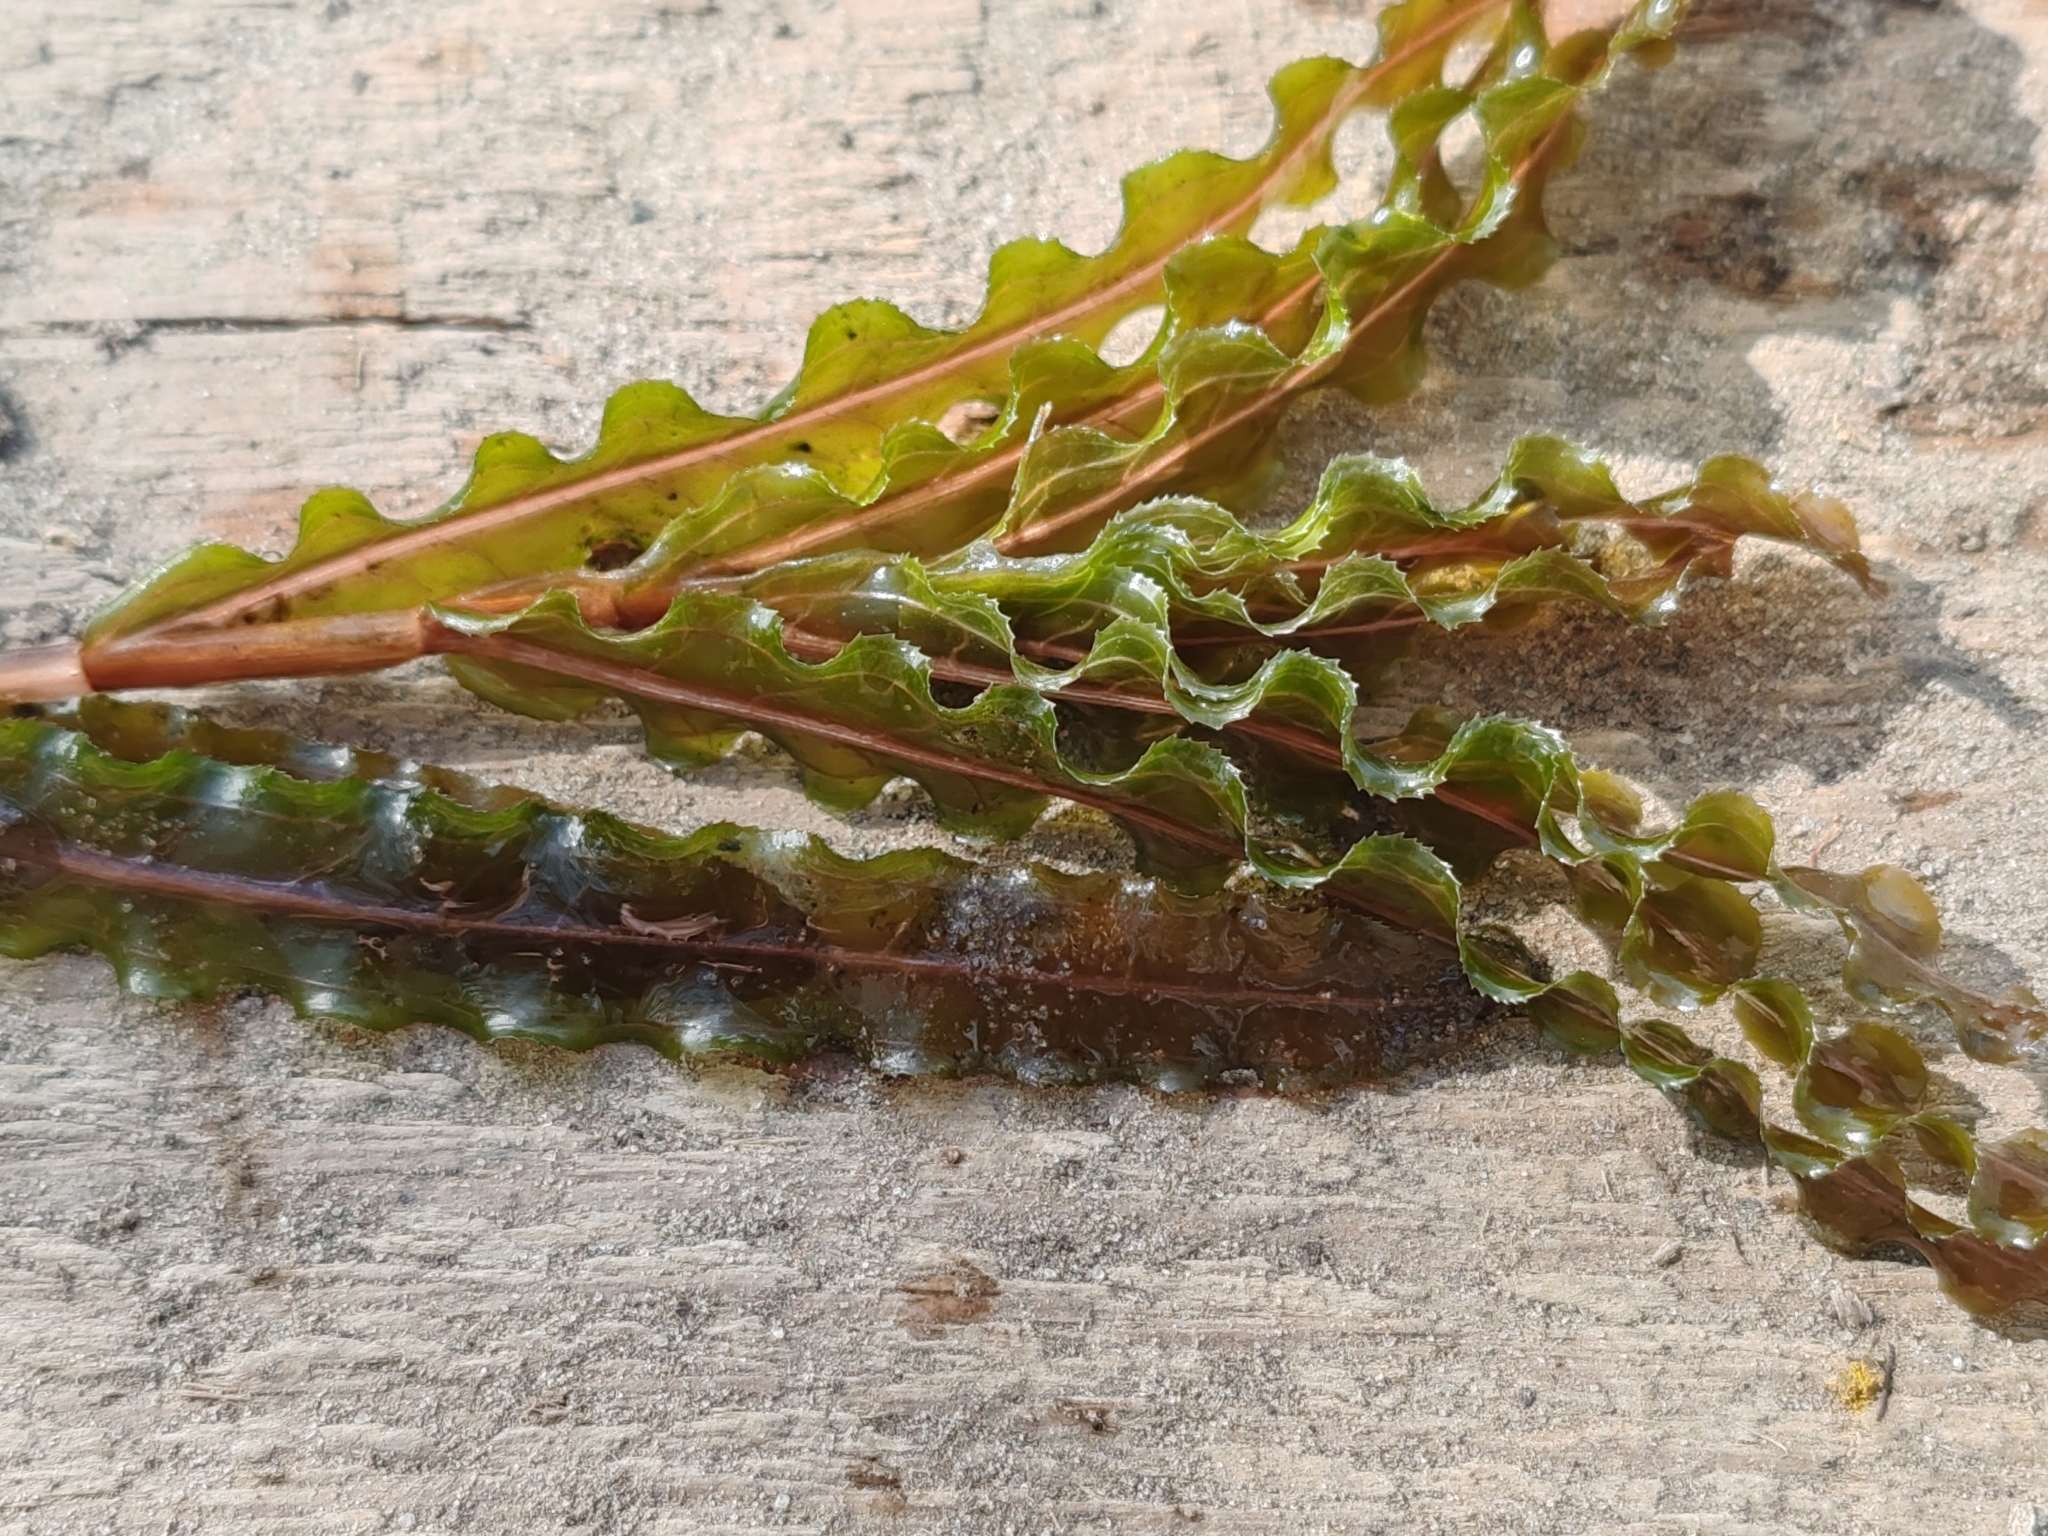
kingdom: Plantae
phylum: Tracheophyta
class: Liliopsida
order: Alismatales
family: Potamogetonaceae
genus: Potamogeton
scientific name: Potamogeton crispus
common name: Curled pondweed
